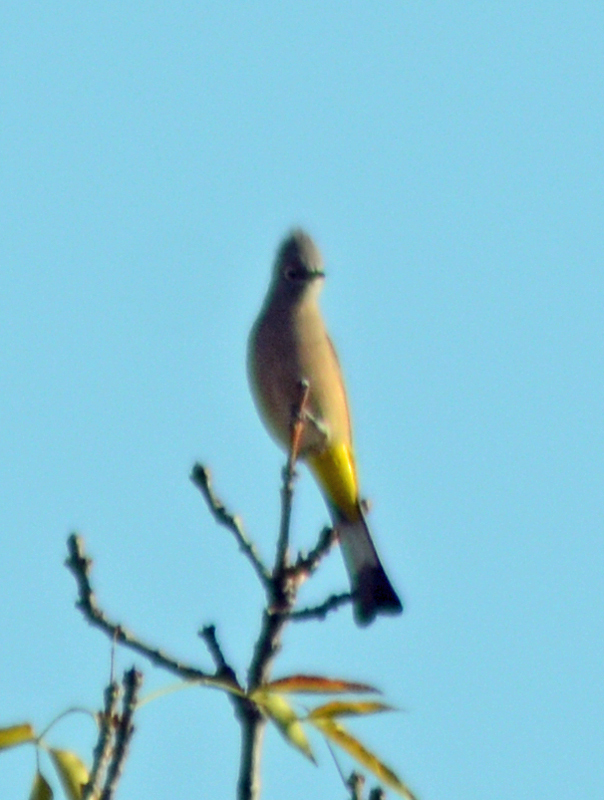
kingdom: Animalia
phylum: Chordata
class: Aves
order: Passeriformes
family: Ptilogonatidae
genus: Ptilogonys
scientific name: Ptilogonys cinereus
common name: Gray silky-flycatcher
